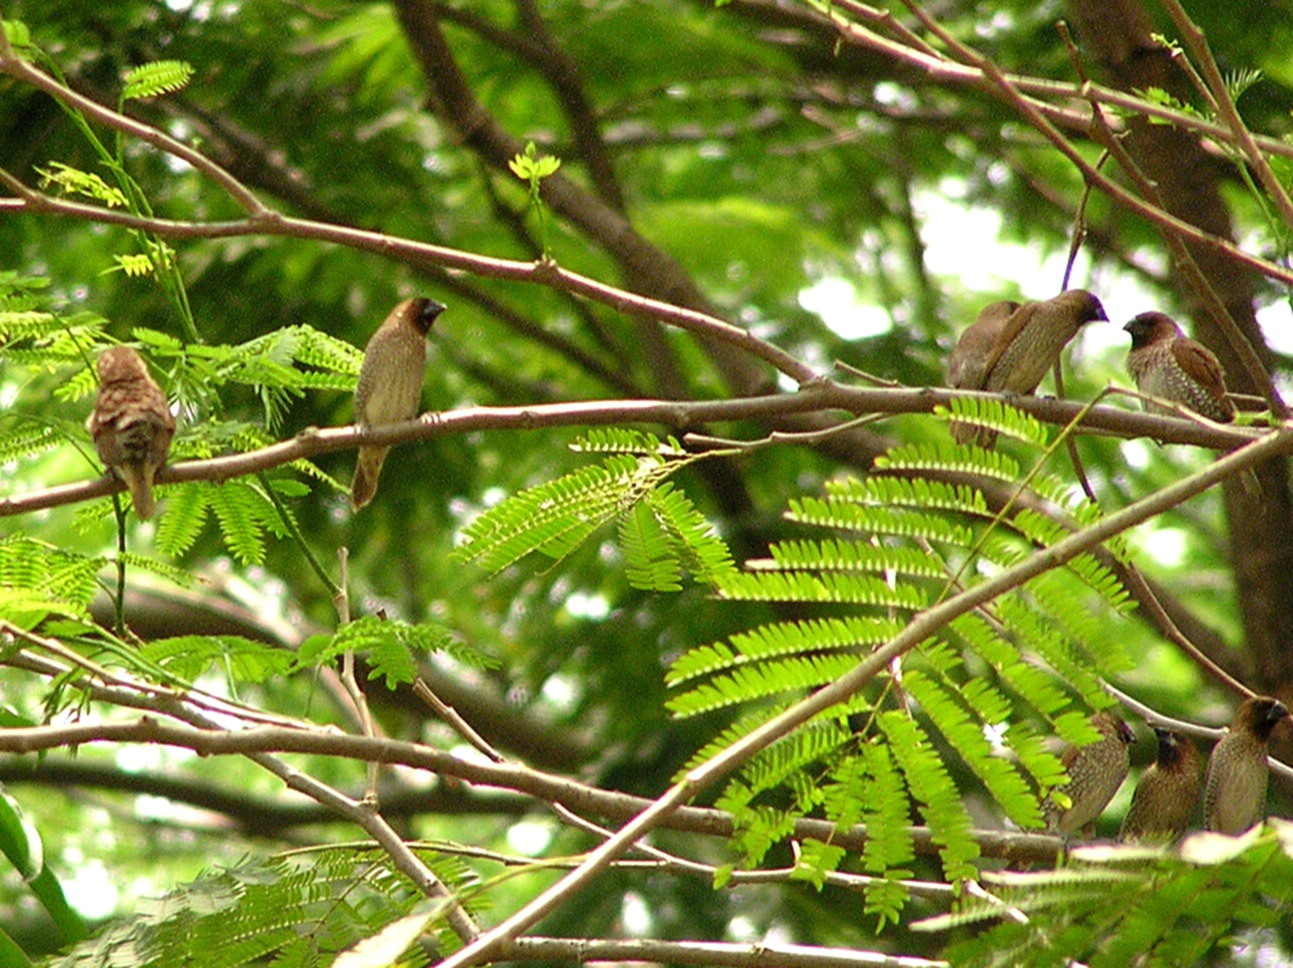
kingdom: Animalia
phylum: Chordata
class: Aves
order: Passeriformes
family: Estrildidae
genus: Lonchura
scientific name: Lonchura punctulata
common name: Scaly-breasted munia
